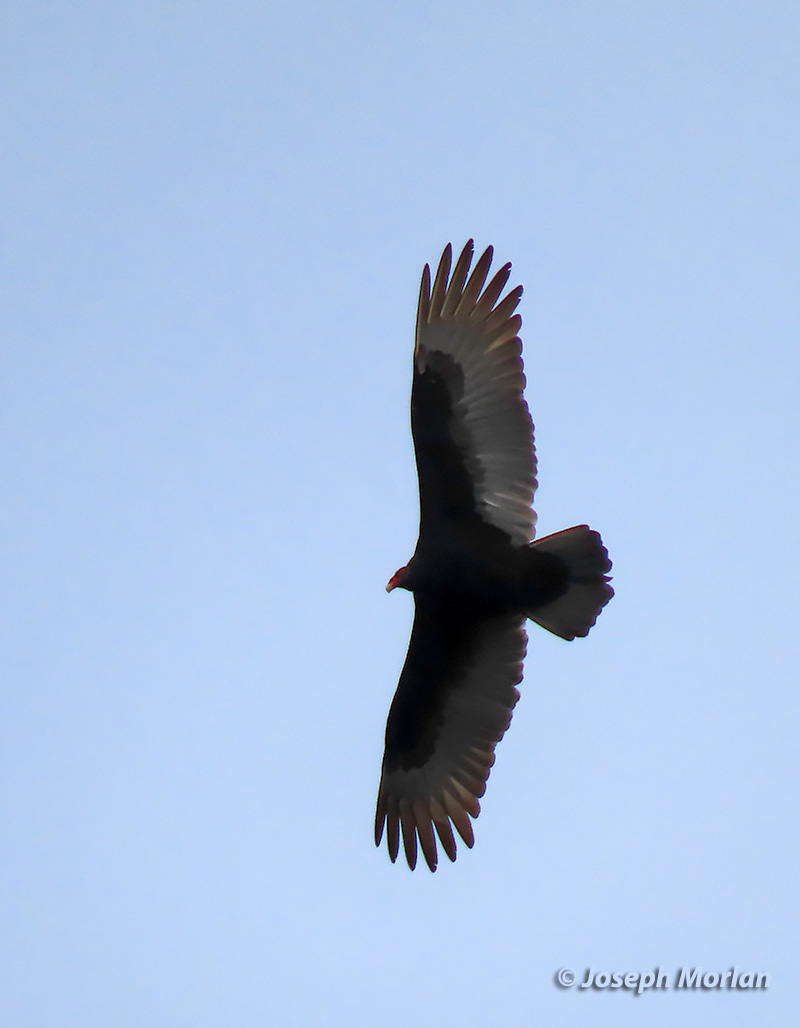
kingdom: Animalia
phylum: Chordata
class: Aves
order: Accipitriformes
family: Cathartidae
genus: Cathartes
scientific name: Cathartes aura
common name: Turkey vulture
